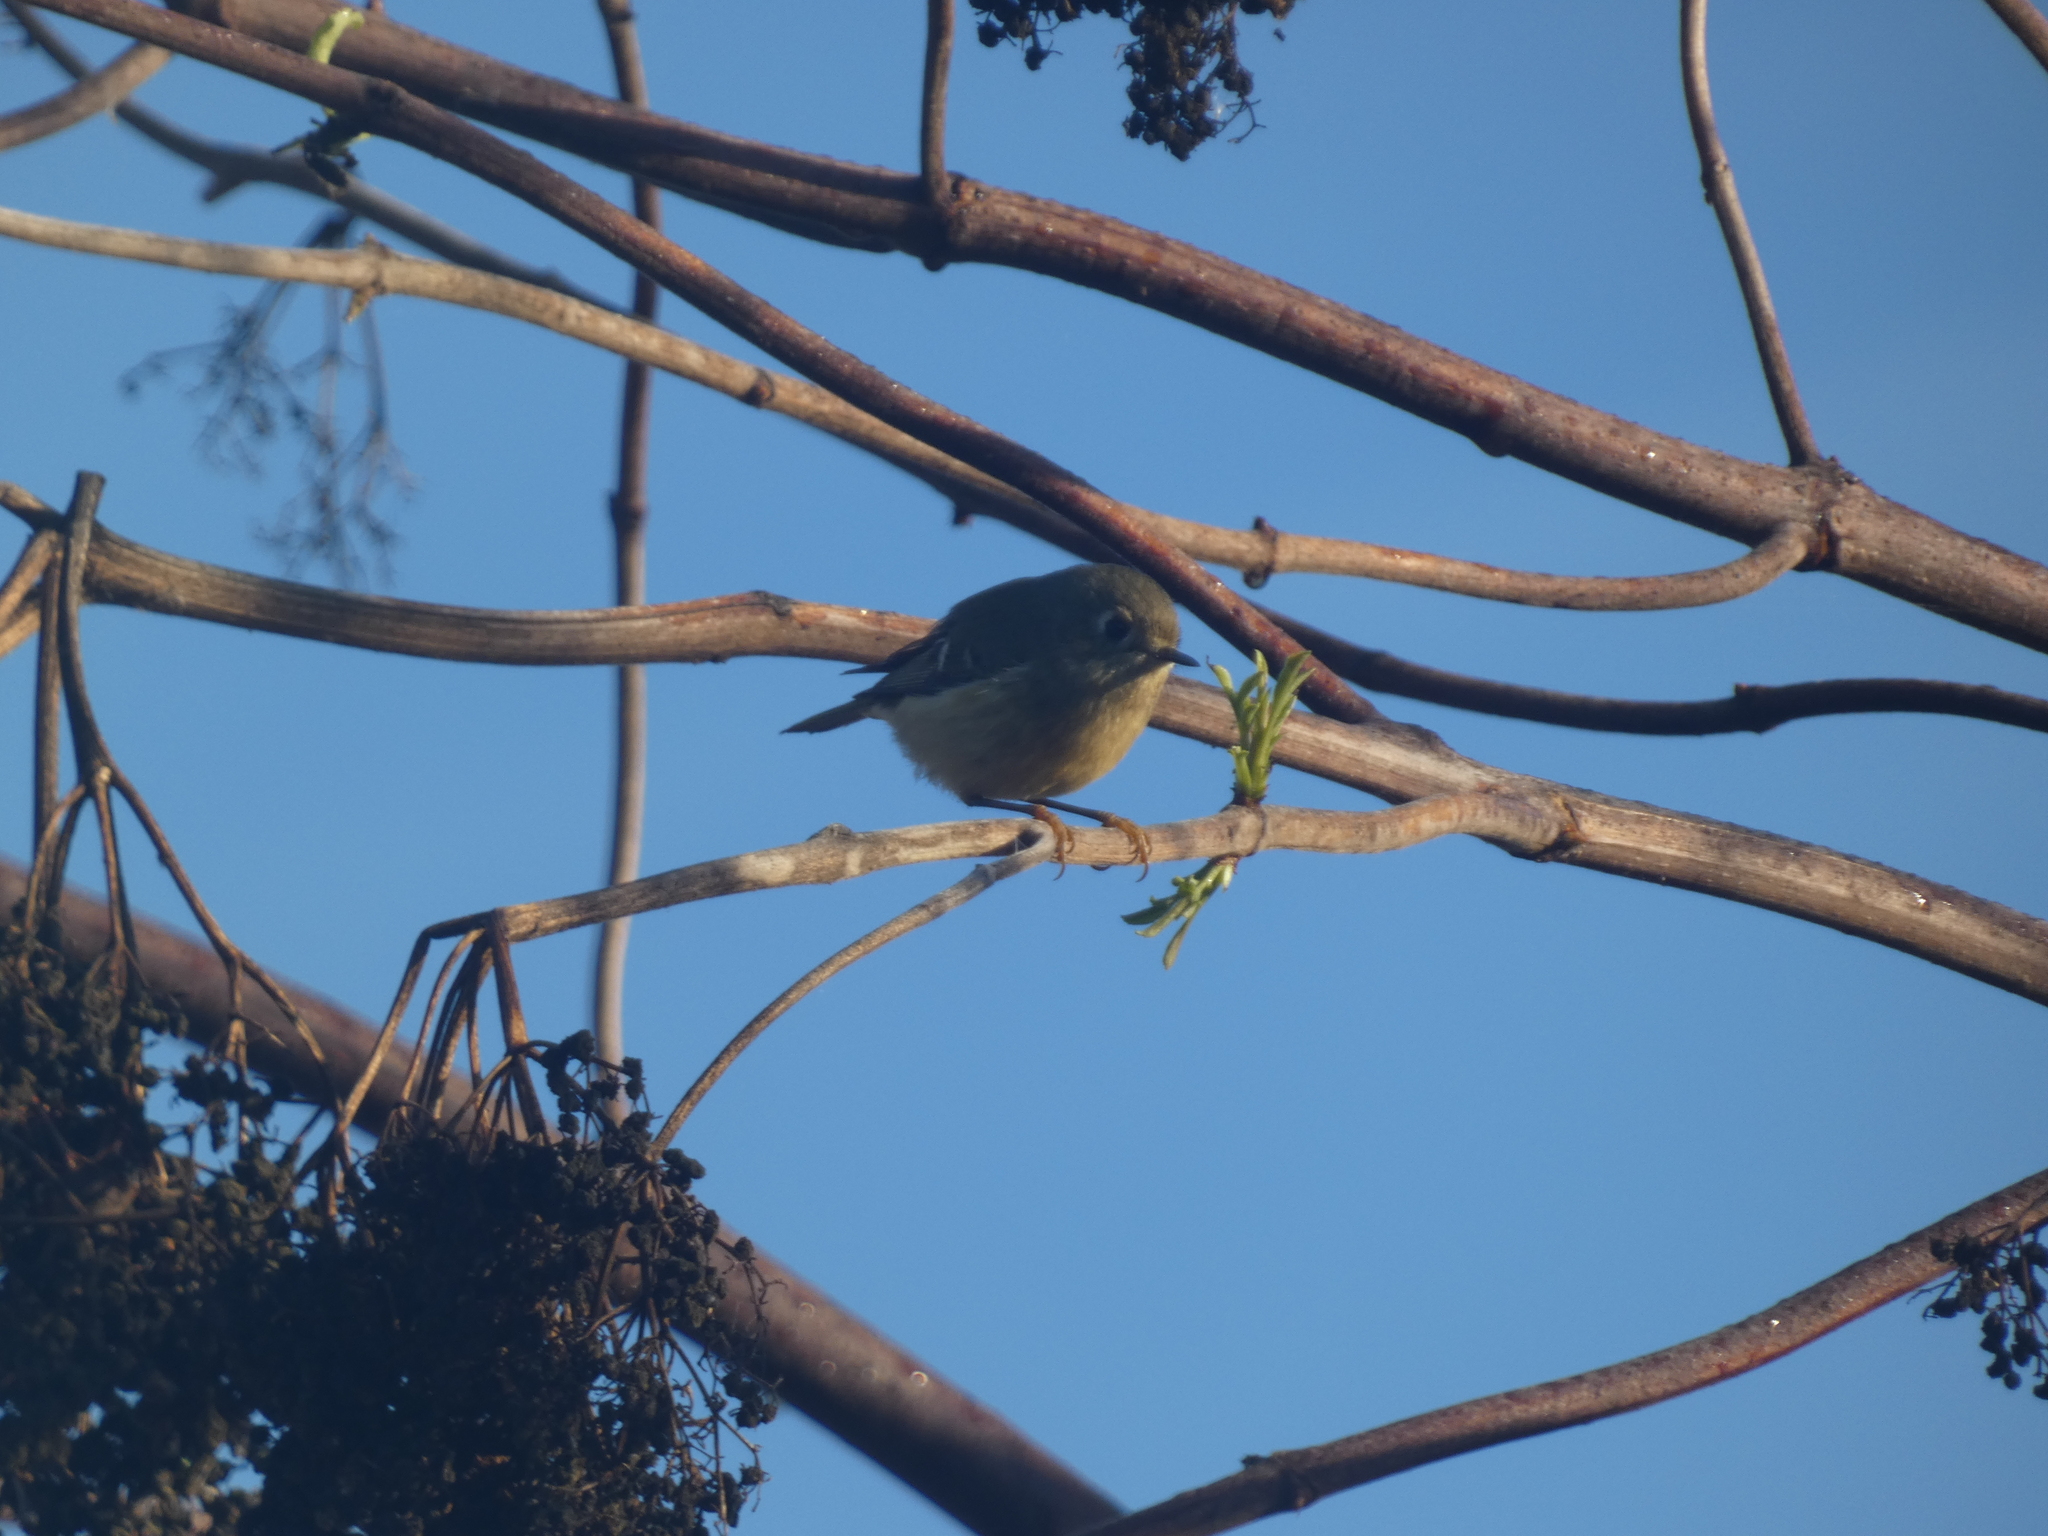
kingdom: Animalia
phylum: Chordata
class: Aves
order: Passeriformes
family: Regulidae
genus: Regulus
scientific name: Regulus calendula
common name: Ruby-crowned kinglet
